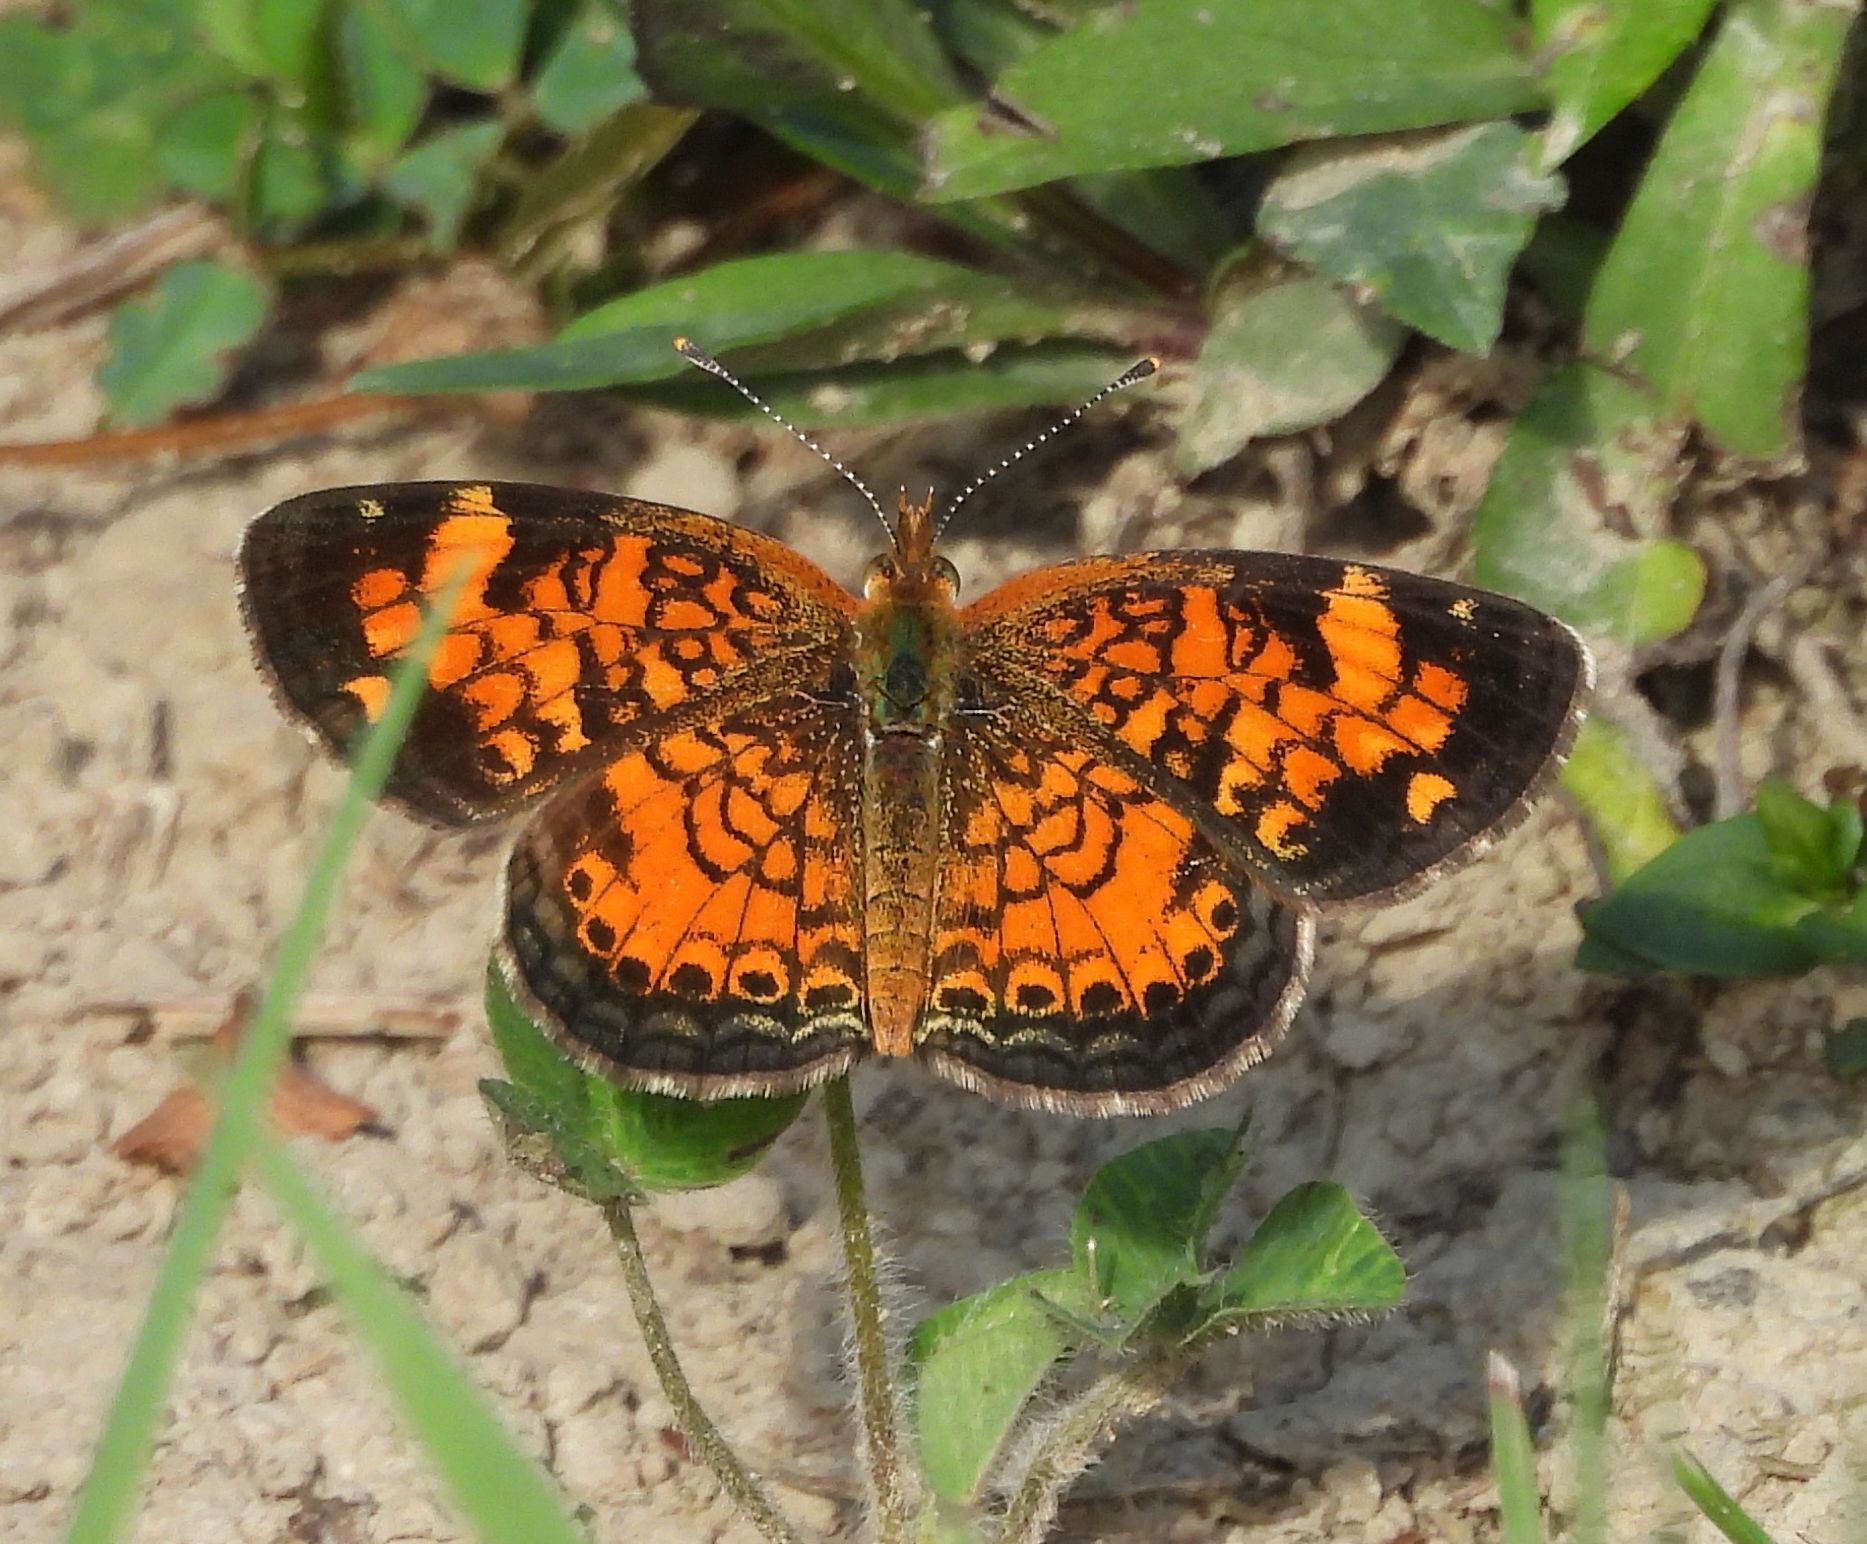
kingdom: Animalia
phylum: Arthropoda
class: Insecta
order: Lepidoptera
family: Nymphalidae
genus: Phyciodes
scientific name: Phyciodes tharos
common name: Pearl crescent
